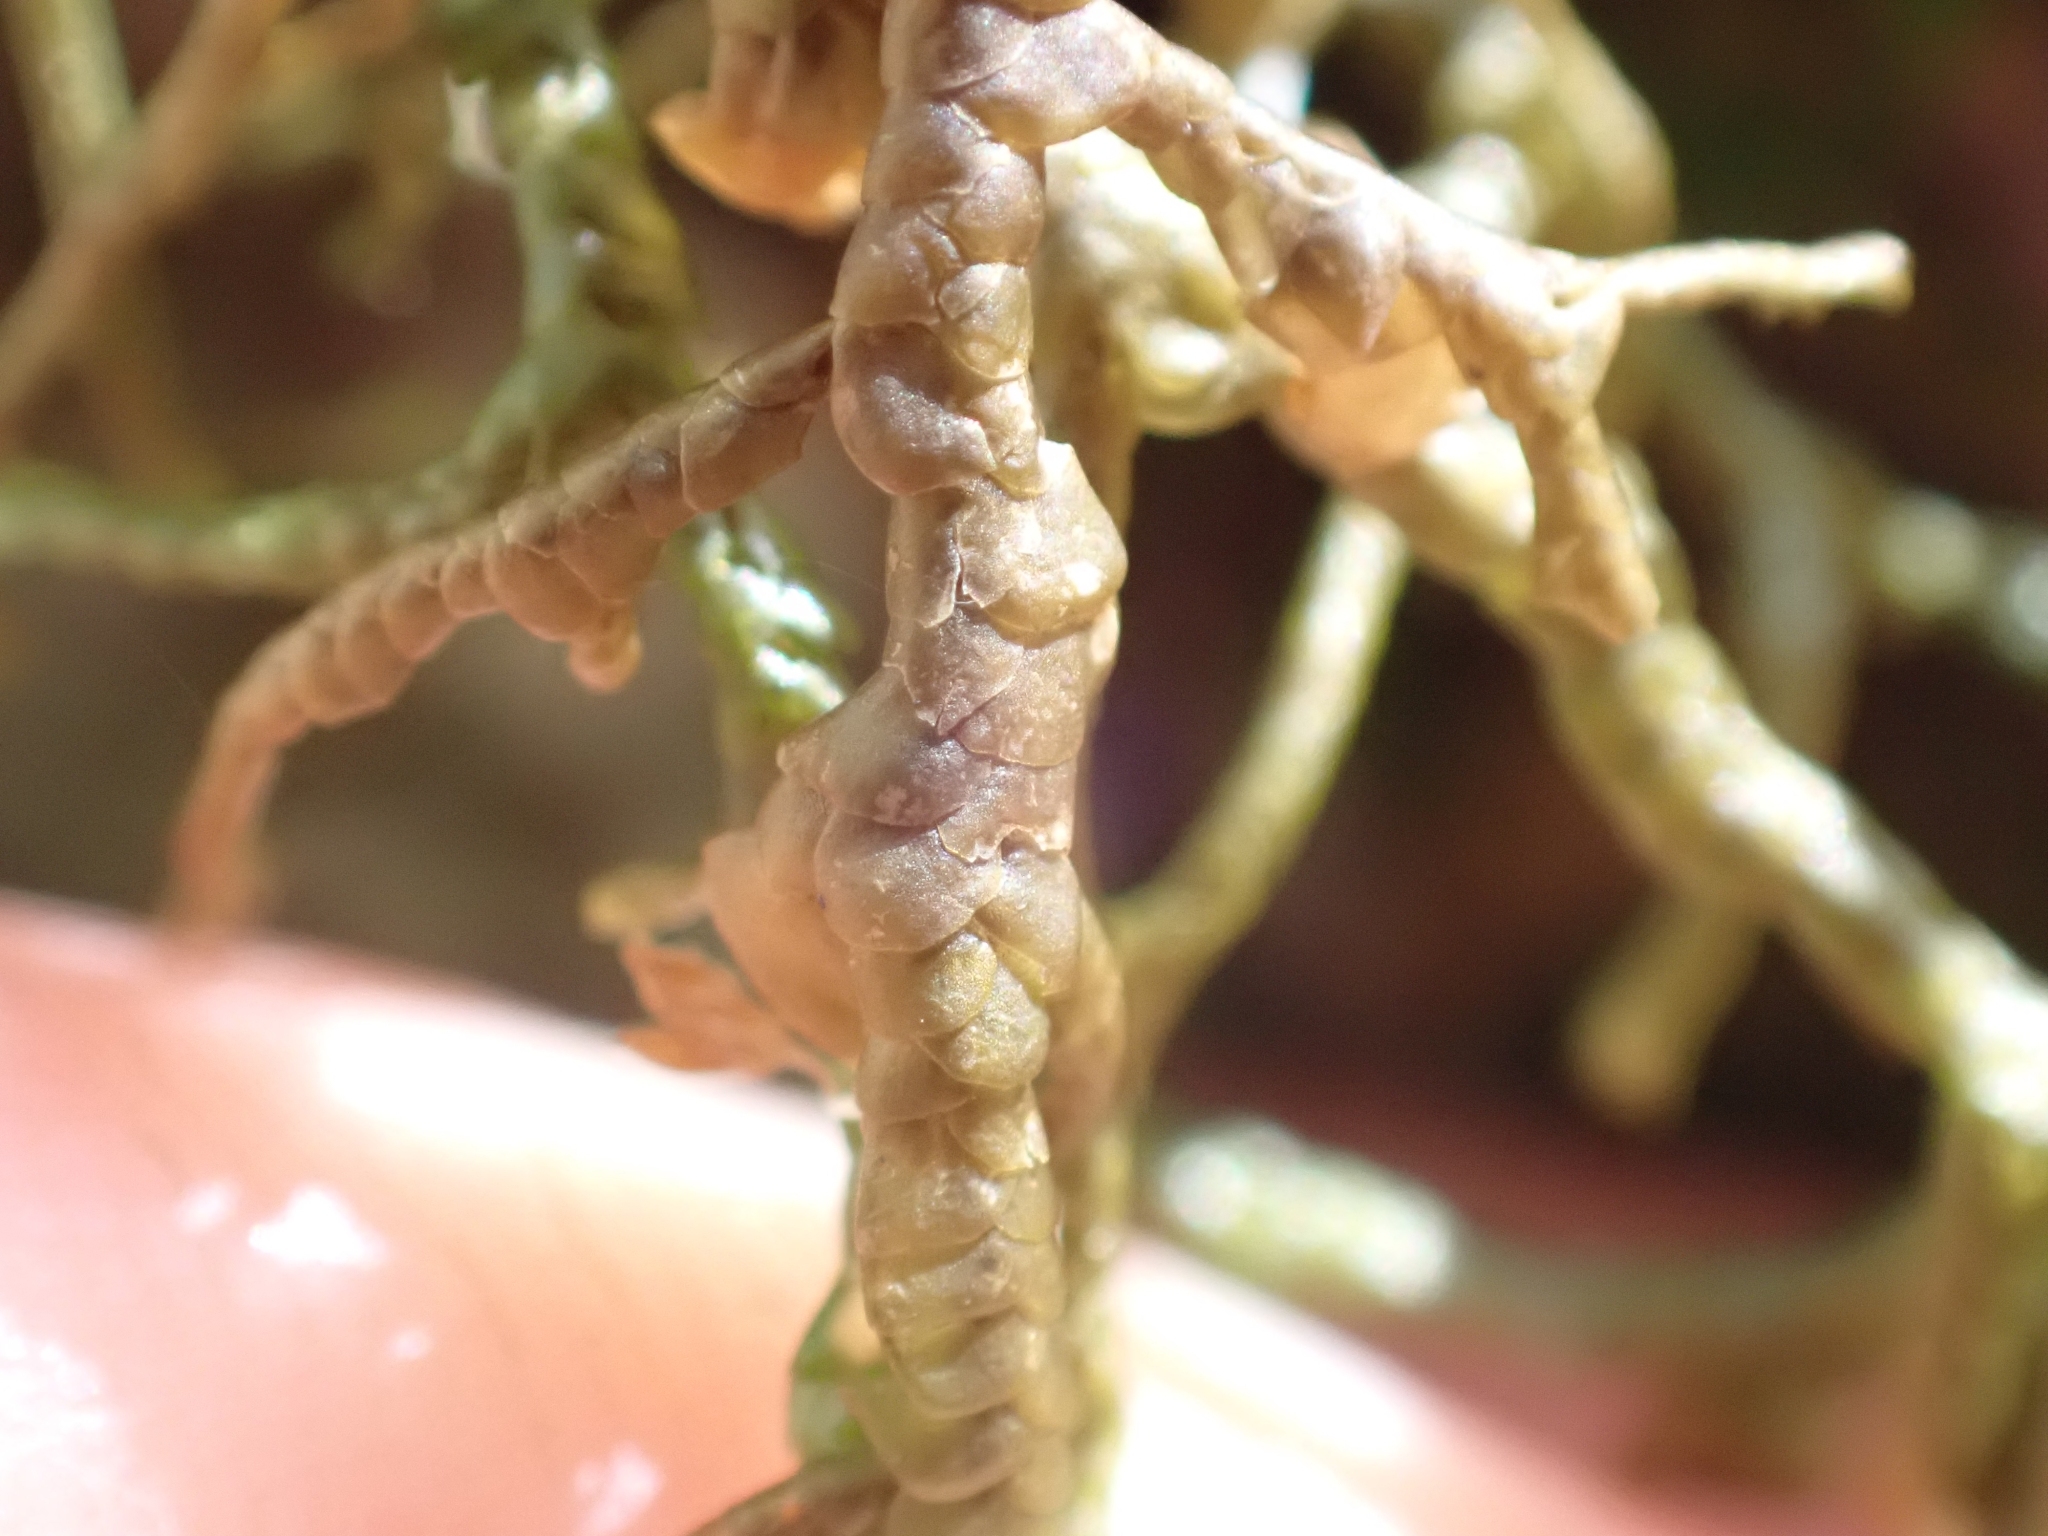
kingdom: Plantae
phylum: Marchantiophyta
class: Jungermanniopsida
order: Porellales
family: Porellaceae
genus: Porella
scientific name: Porella navicularis
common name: Tree ruffle liverwort
